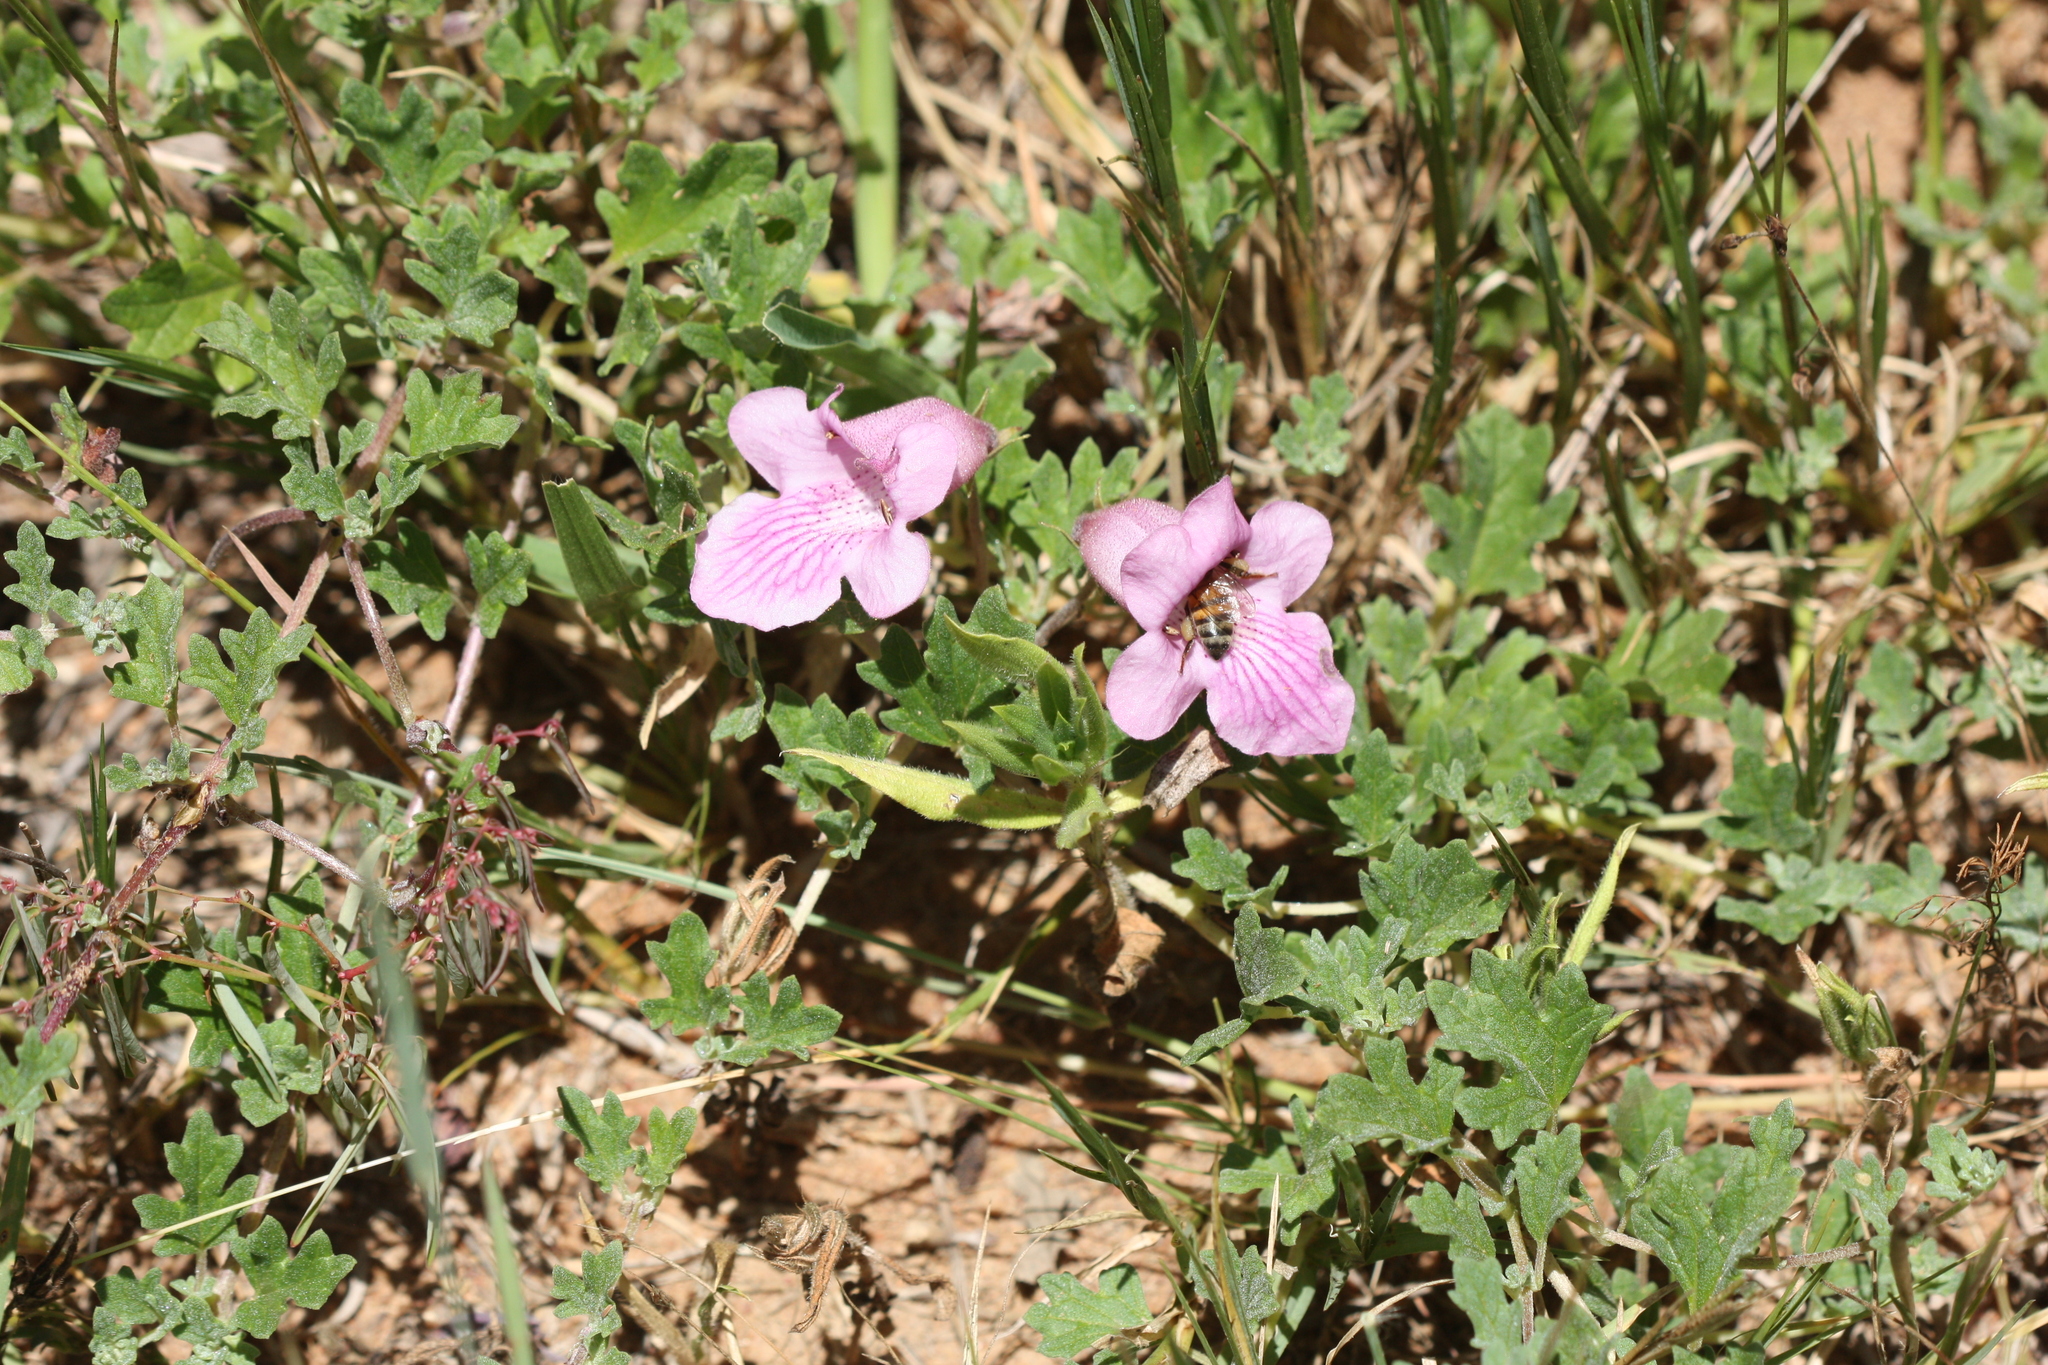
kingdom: Animalia
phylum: Arthropoda
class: Insecta
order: Hymenoptera
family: Apidae
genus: Apis
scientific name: Apis mellifera
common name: Honey bee
